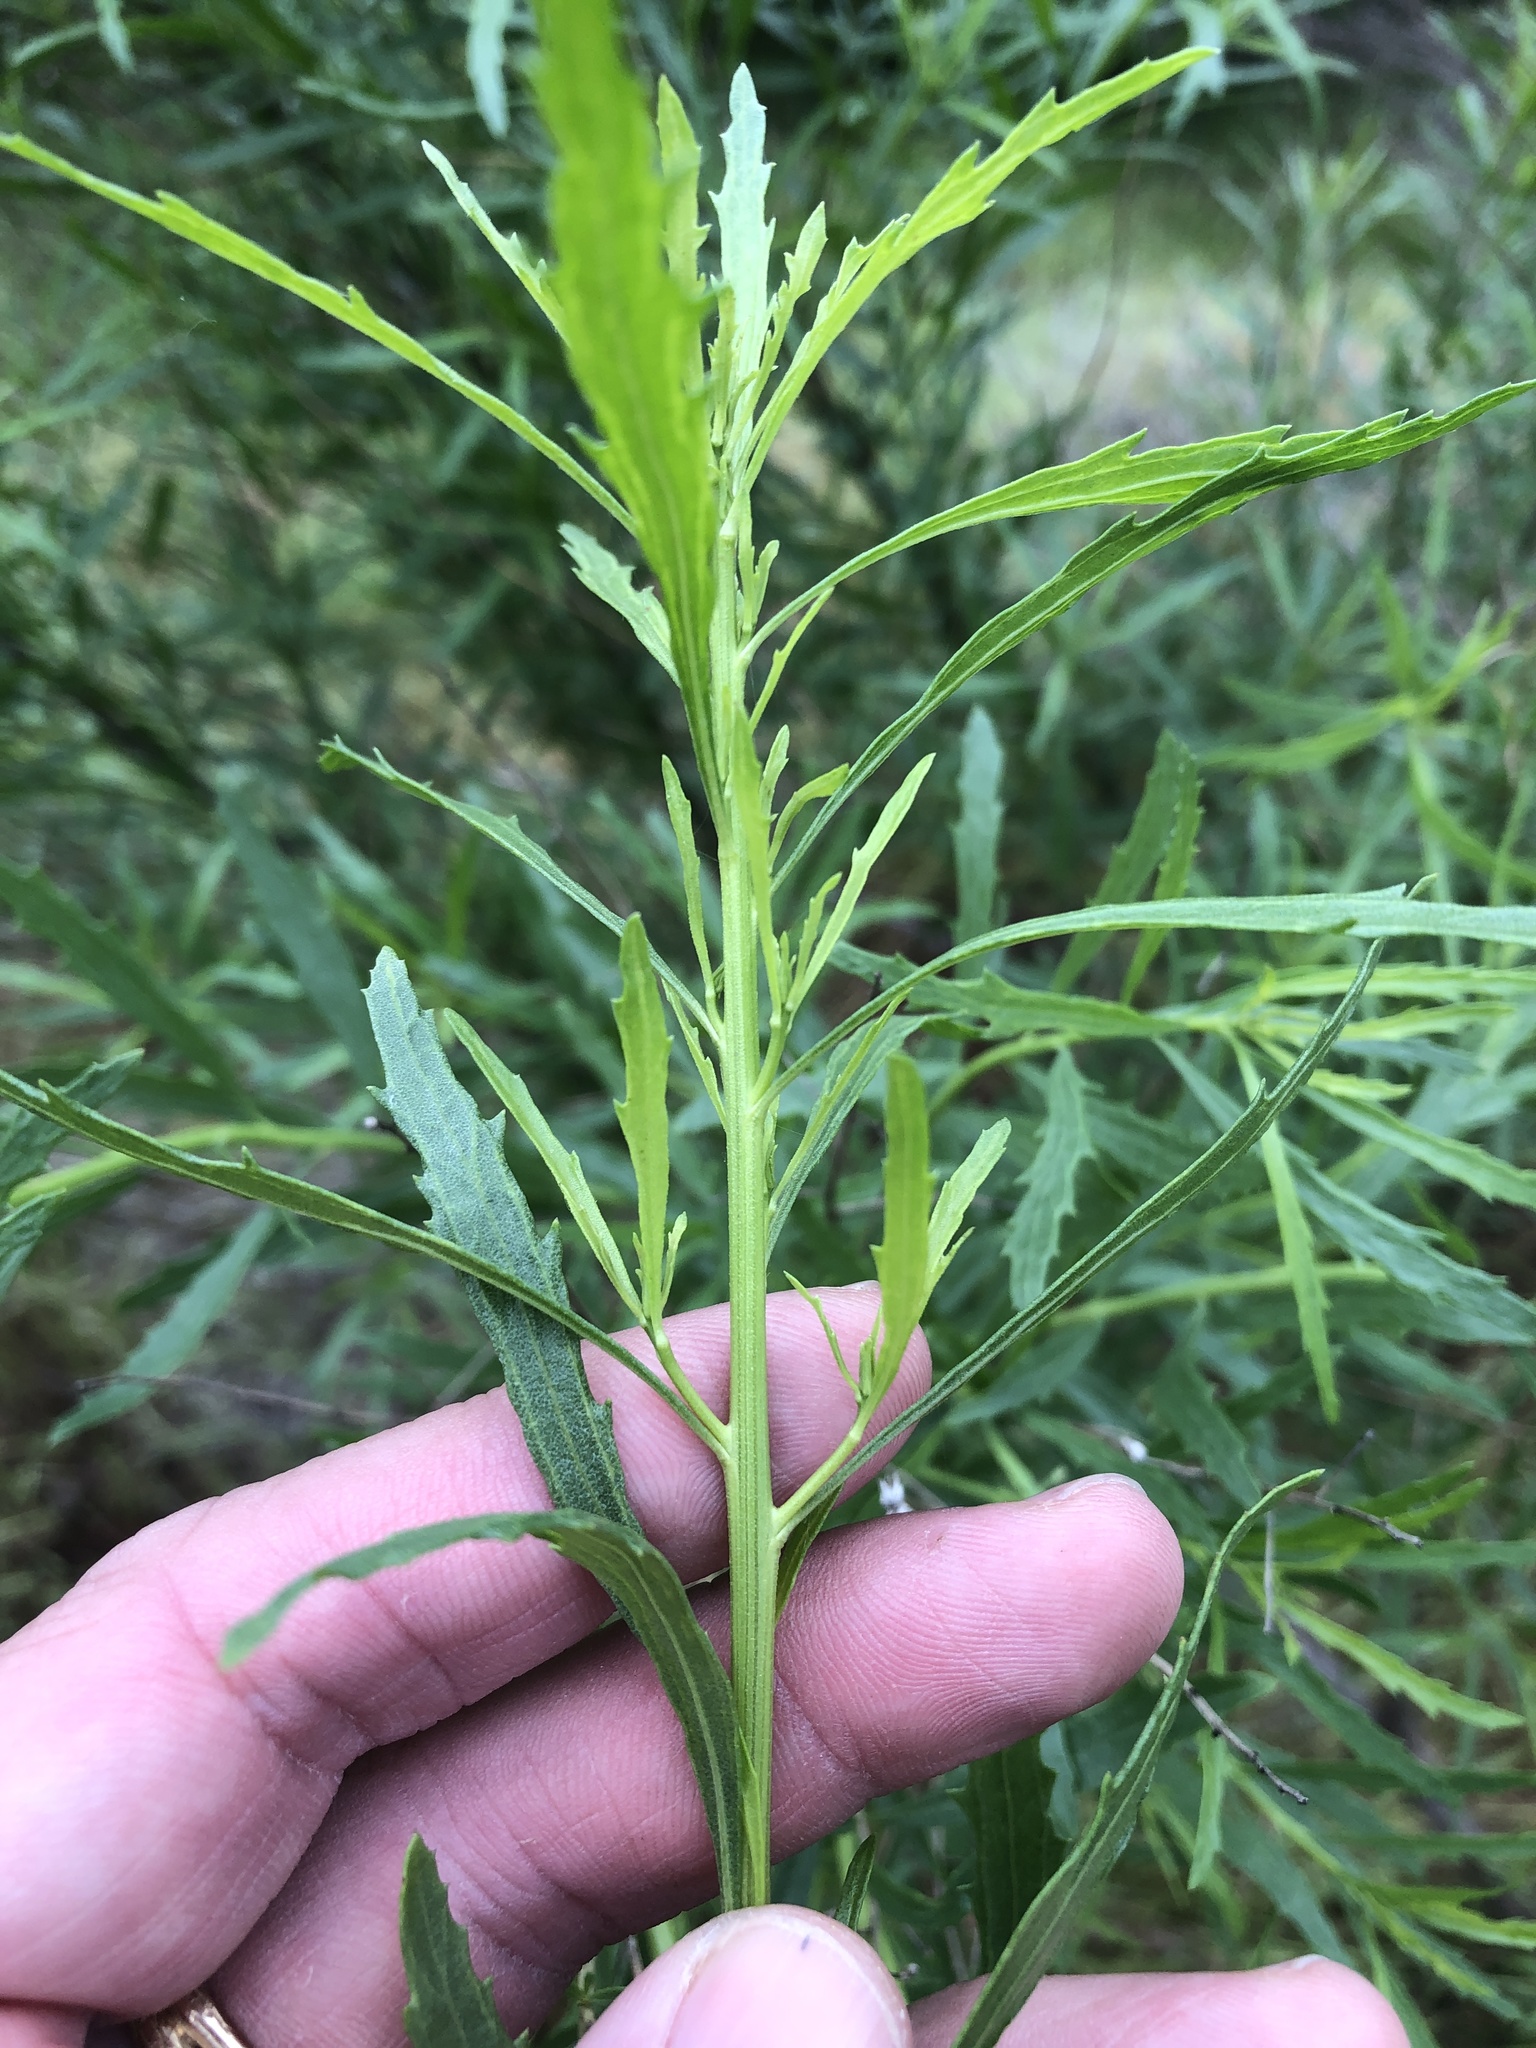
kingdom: Plantae
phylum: Tracheophyta
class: Magnoliopsida
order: Asterales
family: Asteraceae
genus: Baccharis
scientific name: Baccharis neglecta
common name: Roosevelt-weed
